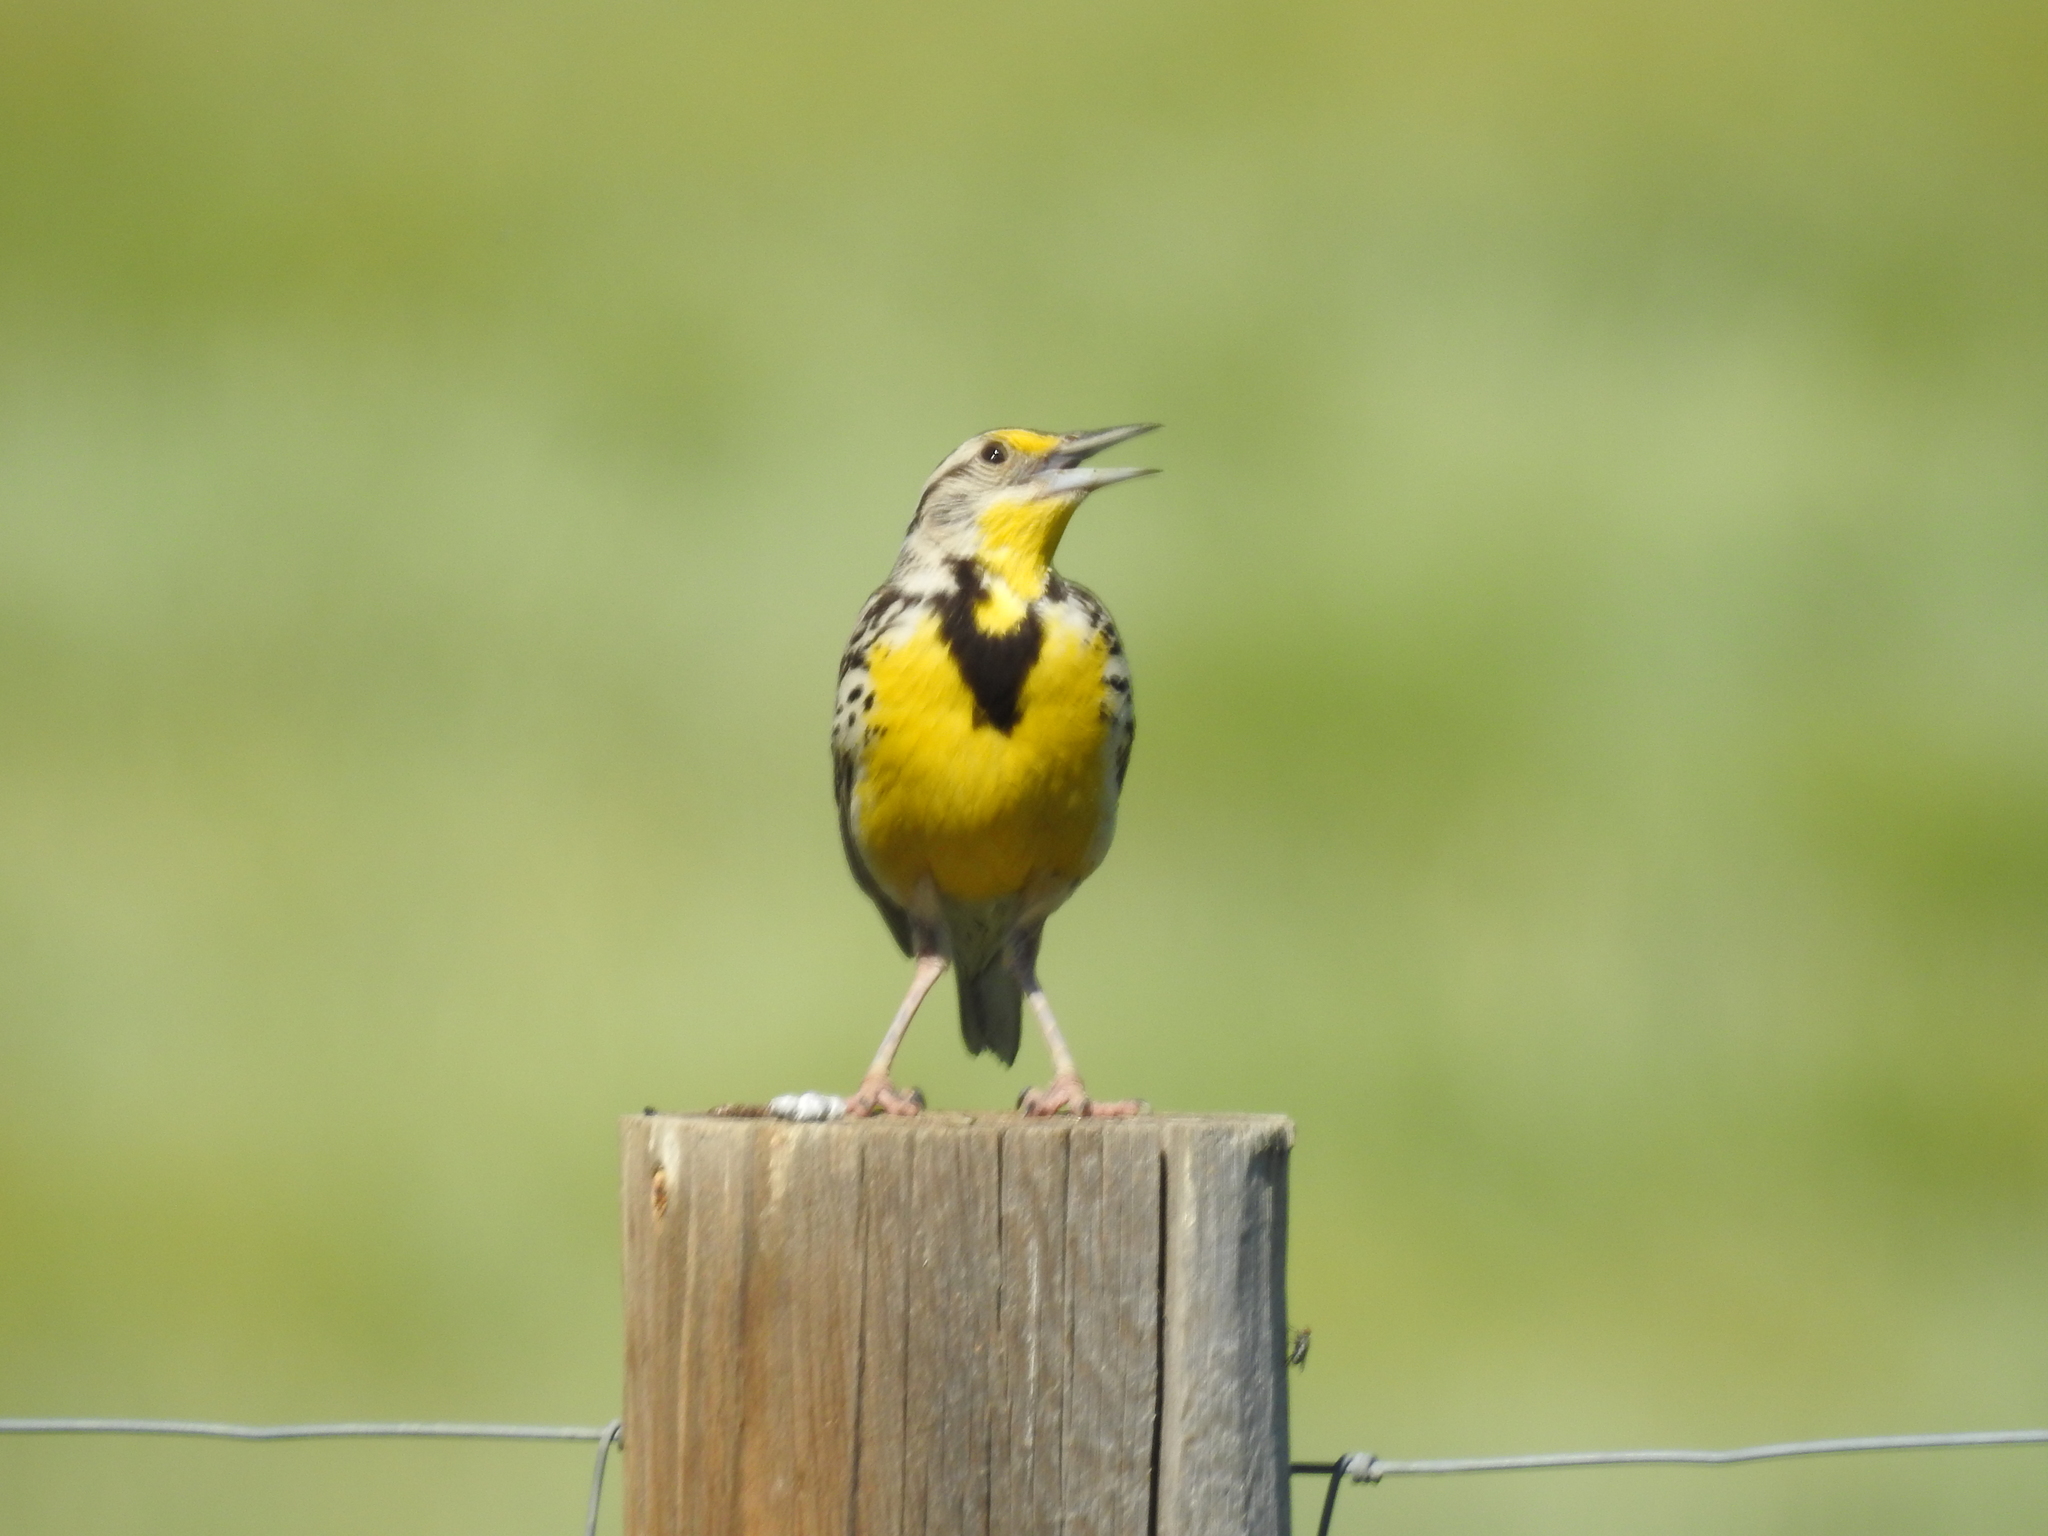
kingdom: Animalia
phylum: Chordata
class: Aves
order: Passeriformes
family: Icteridae
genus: Sturnella
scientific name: Sturnella neglecta
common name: Western meadowlark
